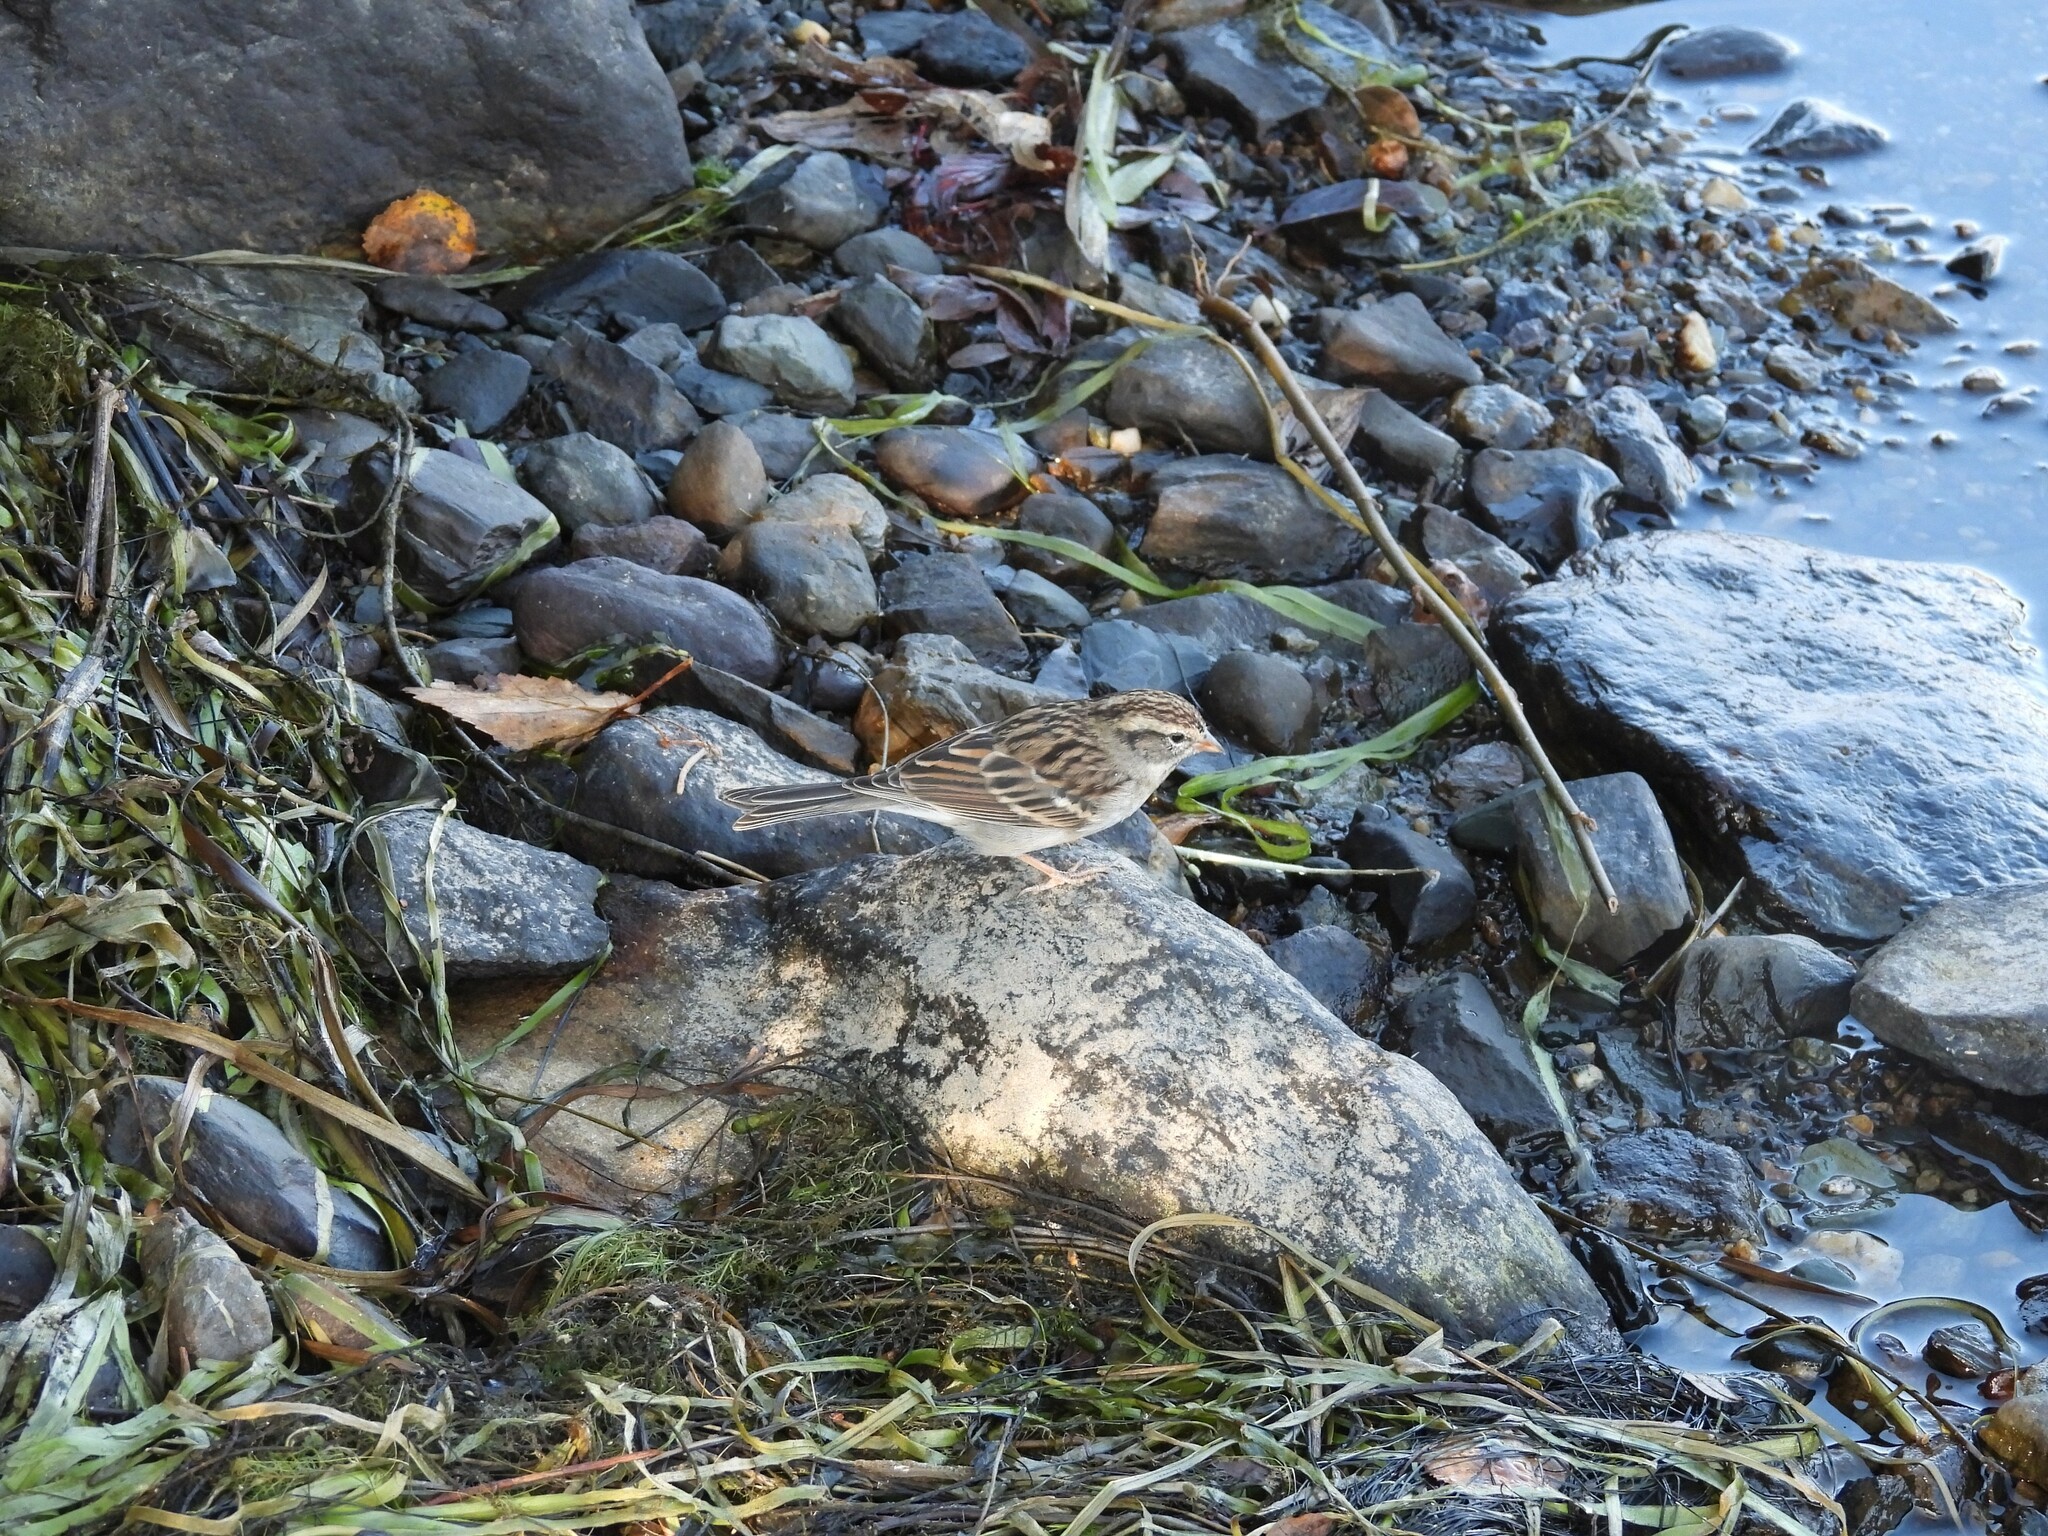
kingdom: Animalia
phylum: Chordata
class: Aves
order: Passeriformes
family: Passerellidae
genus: Spizella
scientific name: Spizella passerina
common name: Chipping sparrow
